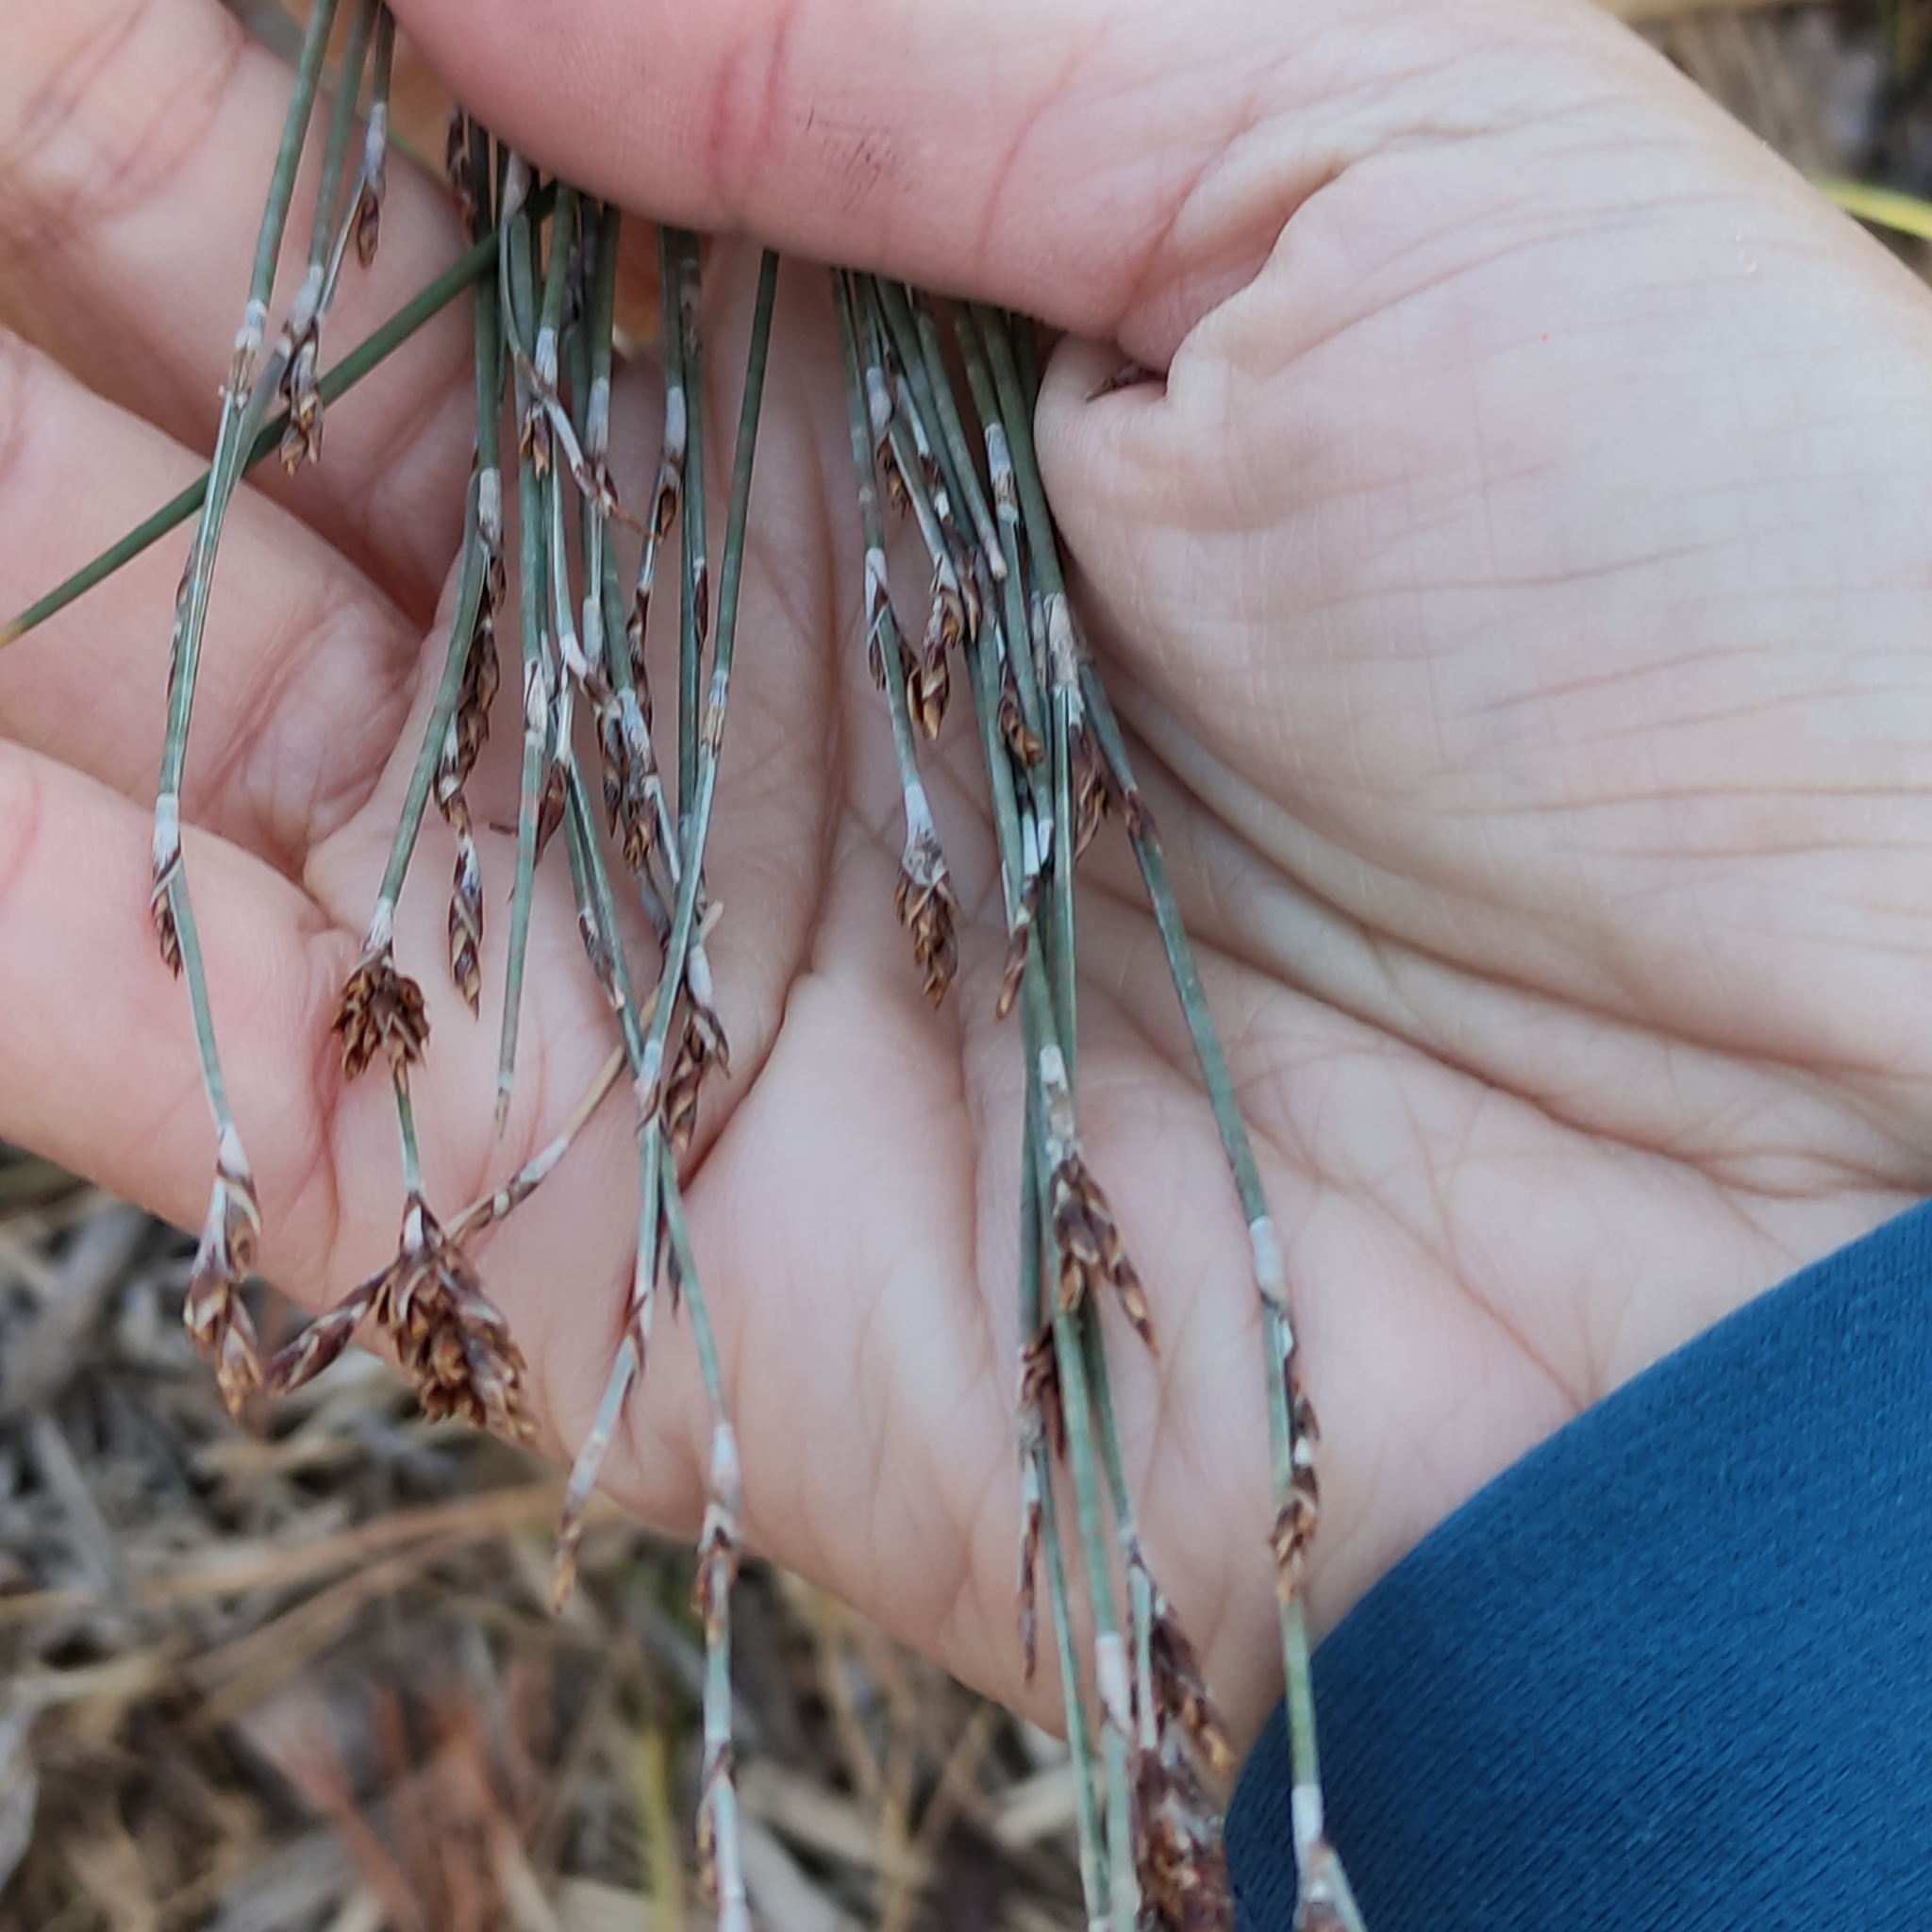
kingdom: Plantae
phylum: Tracheophyta
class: Liliopsida
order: Poales
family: Restionaceae
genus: Apodasmia
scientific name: Apodasmia similis
